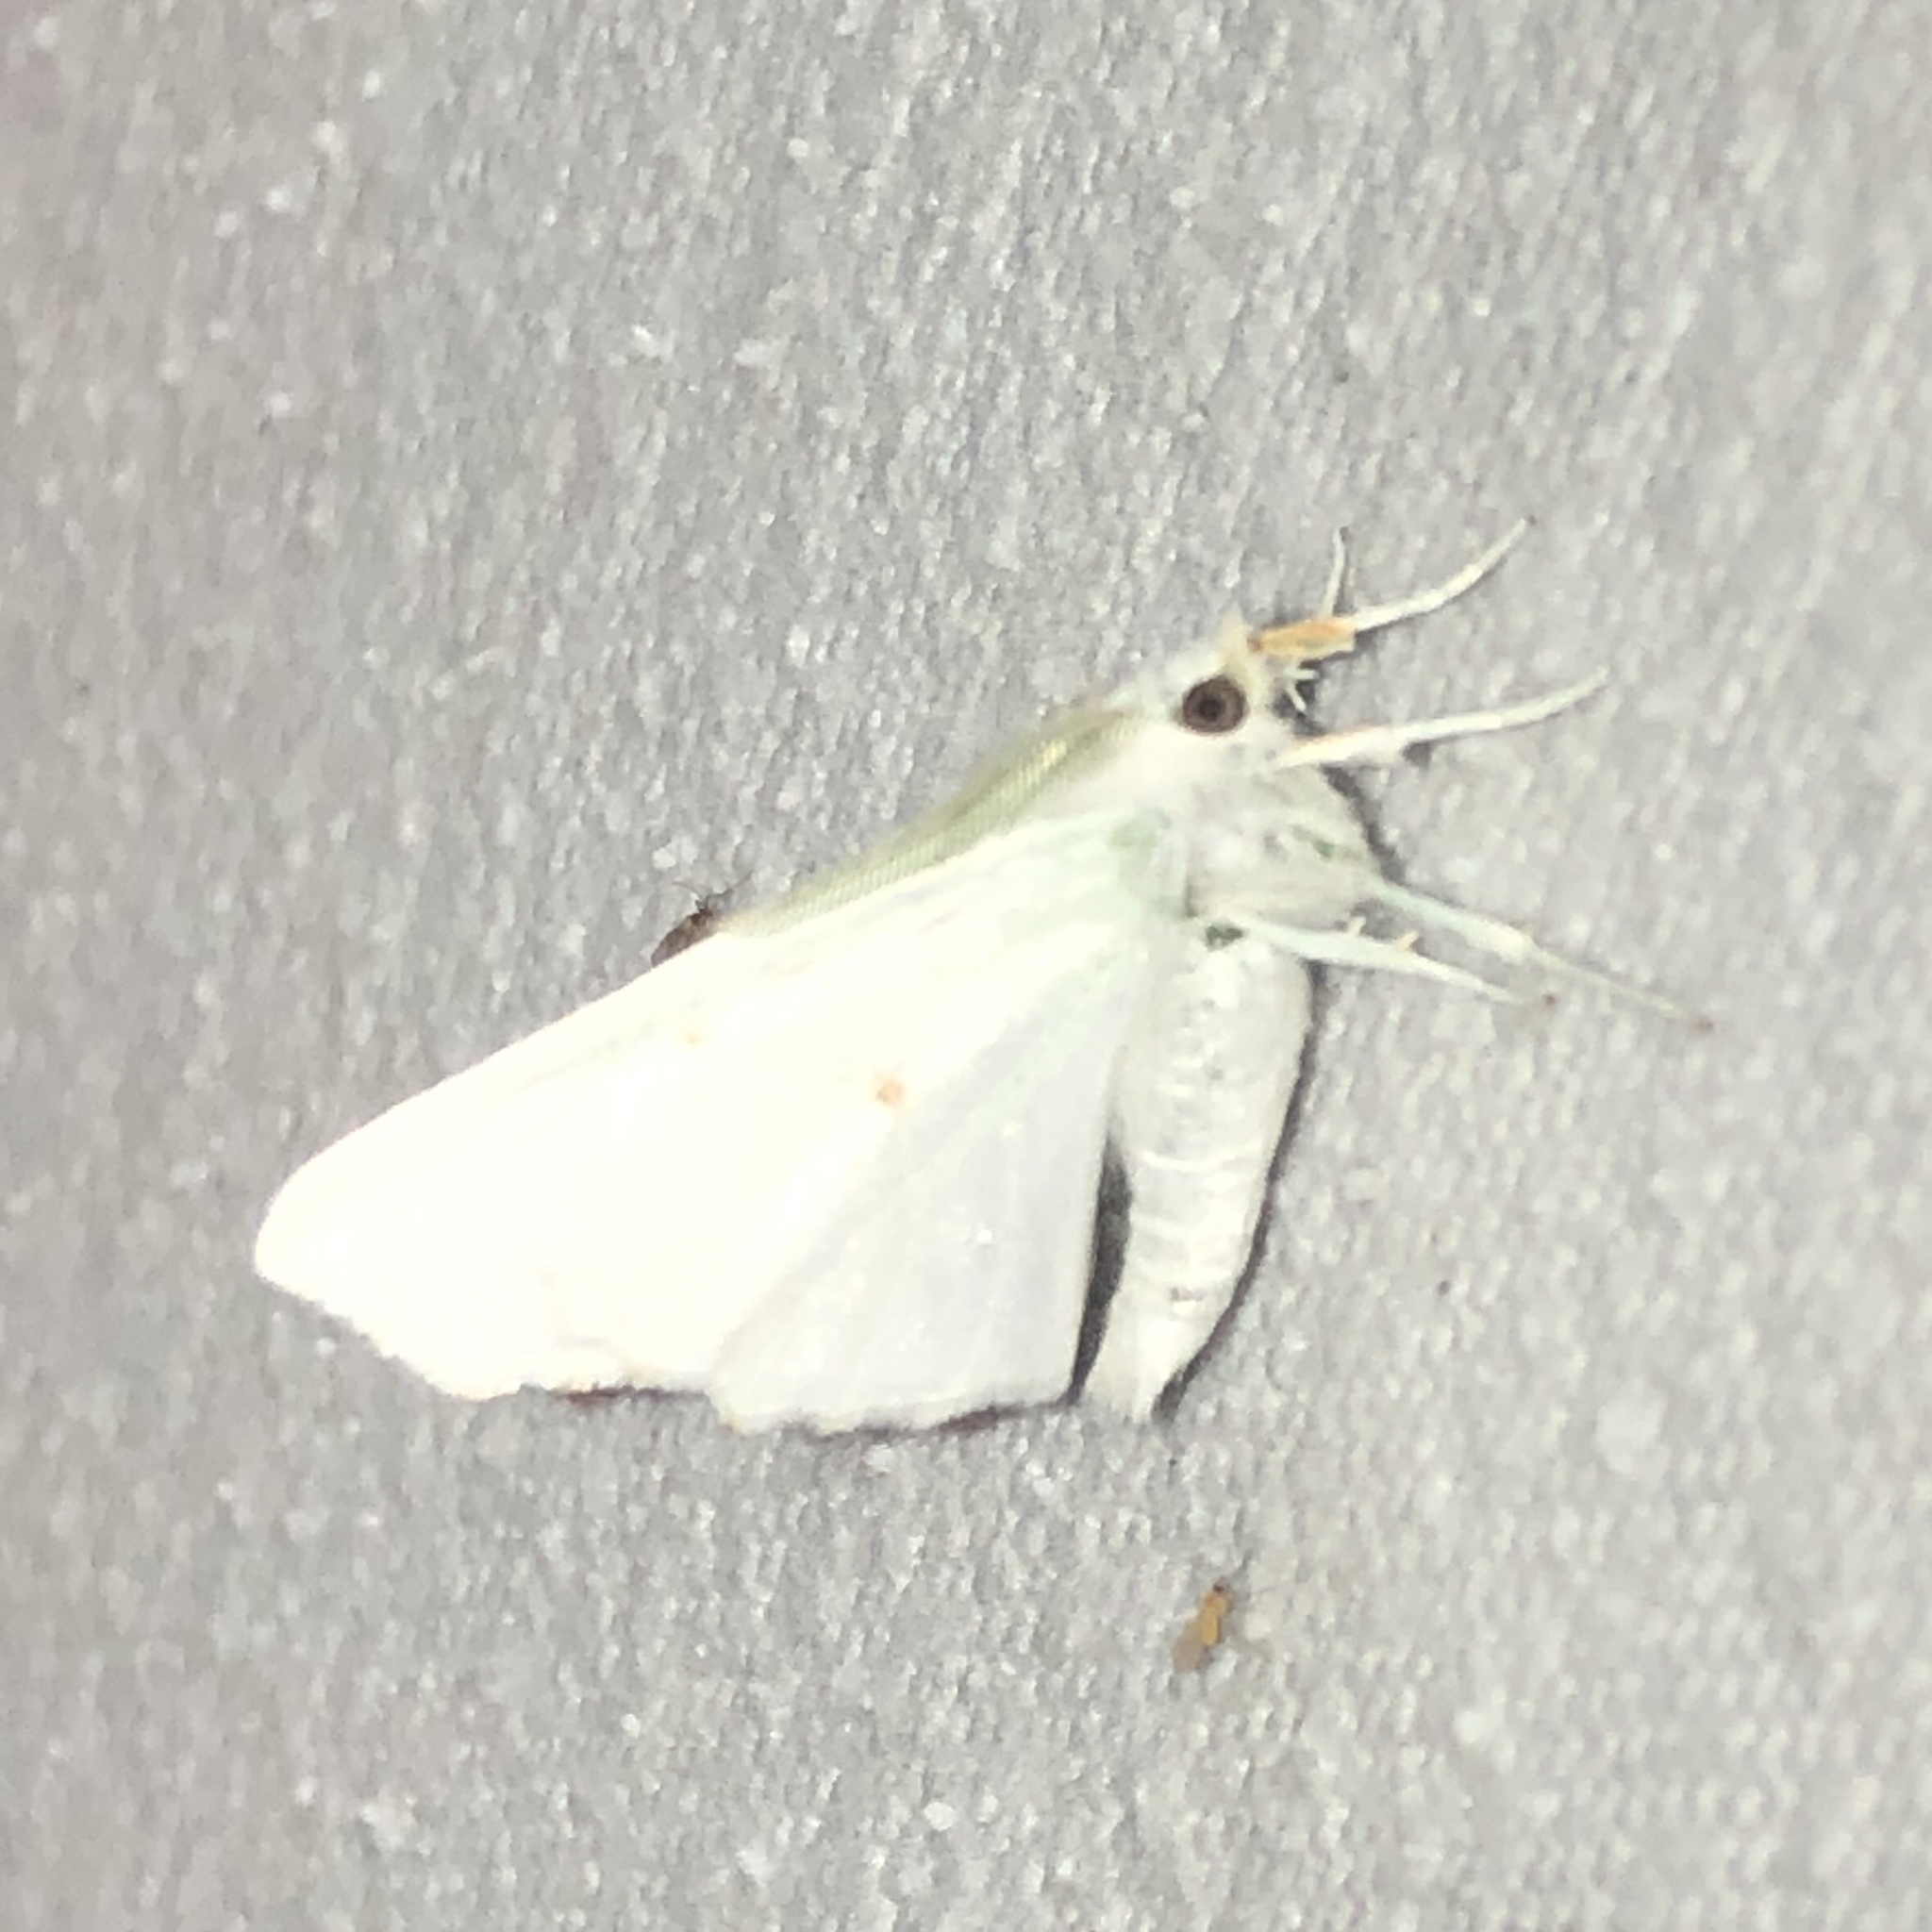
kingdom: Animalia
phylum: Arthropoda
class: Insecta
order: Lepidoptera
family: Geometridae
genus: Ennomos
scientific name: Ennomos subsignaria
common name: Elm spanworm
